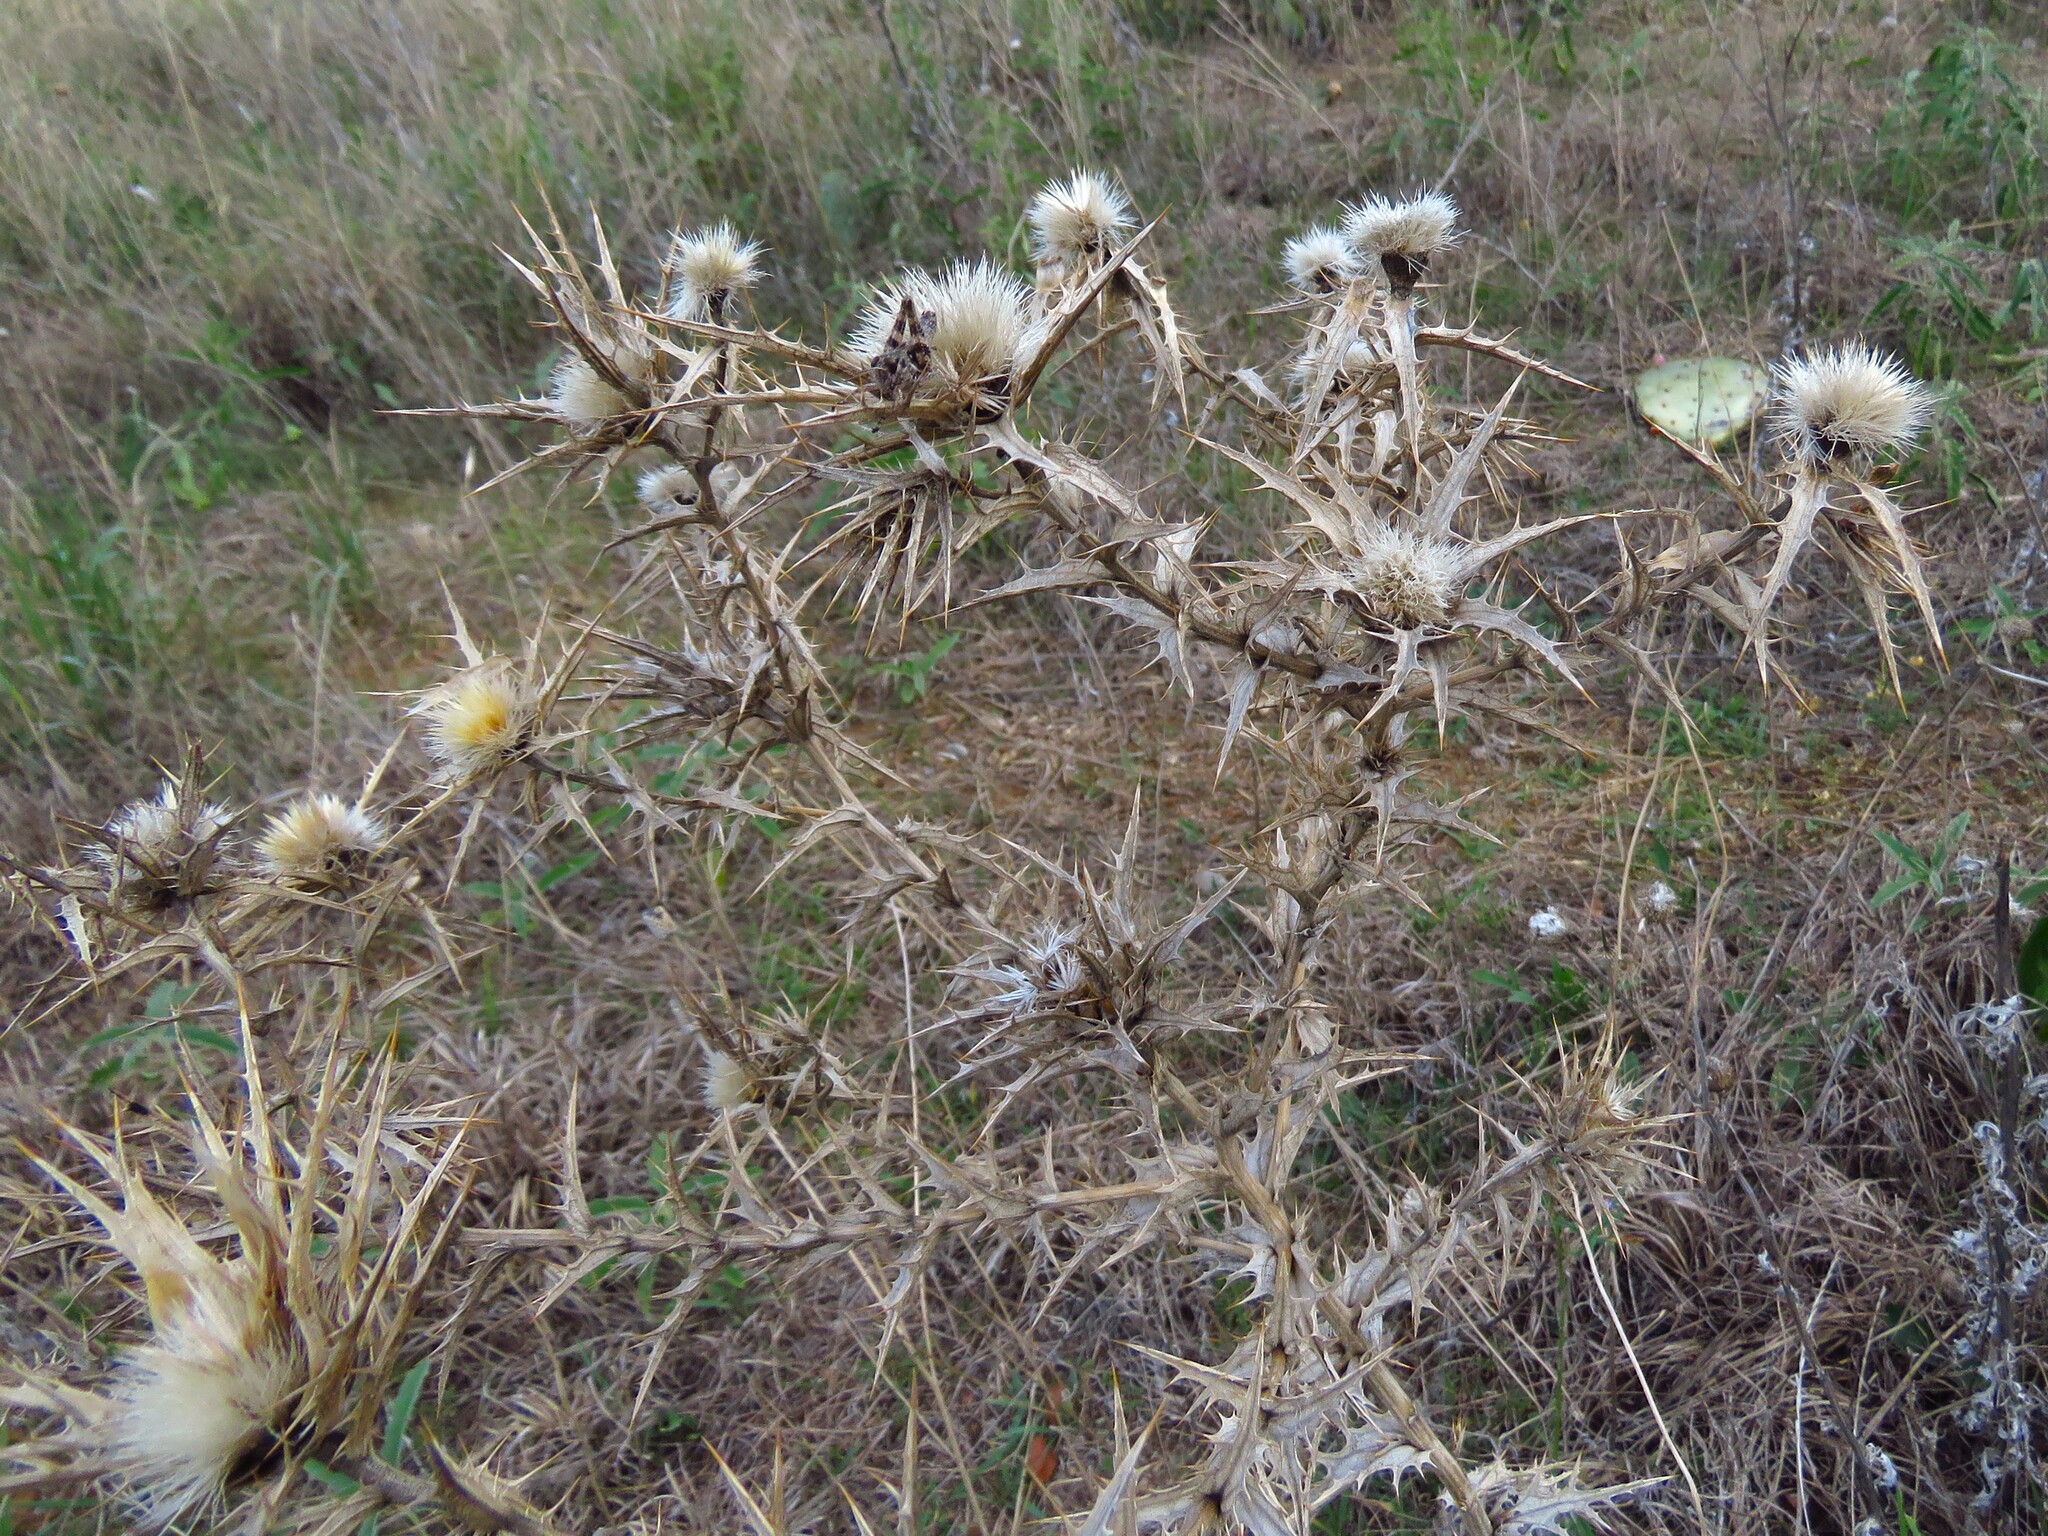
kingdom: Plantae
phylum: Tracheophyta
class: Magnoliopsida
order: Asterales
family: Asteraceae
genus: Carthamus
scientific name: Carthamus lanatus
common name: Downy safflower
